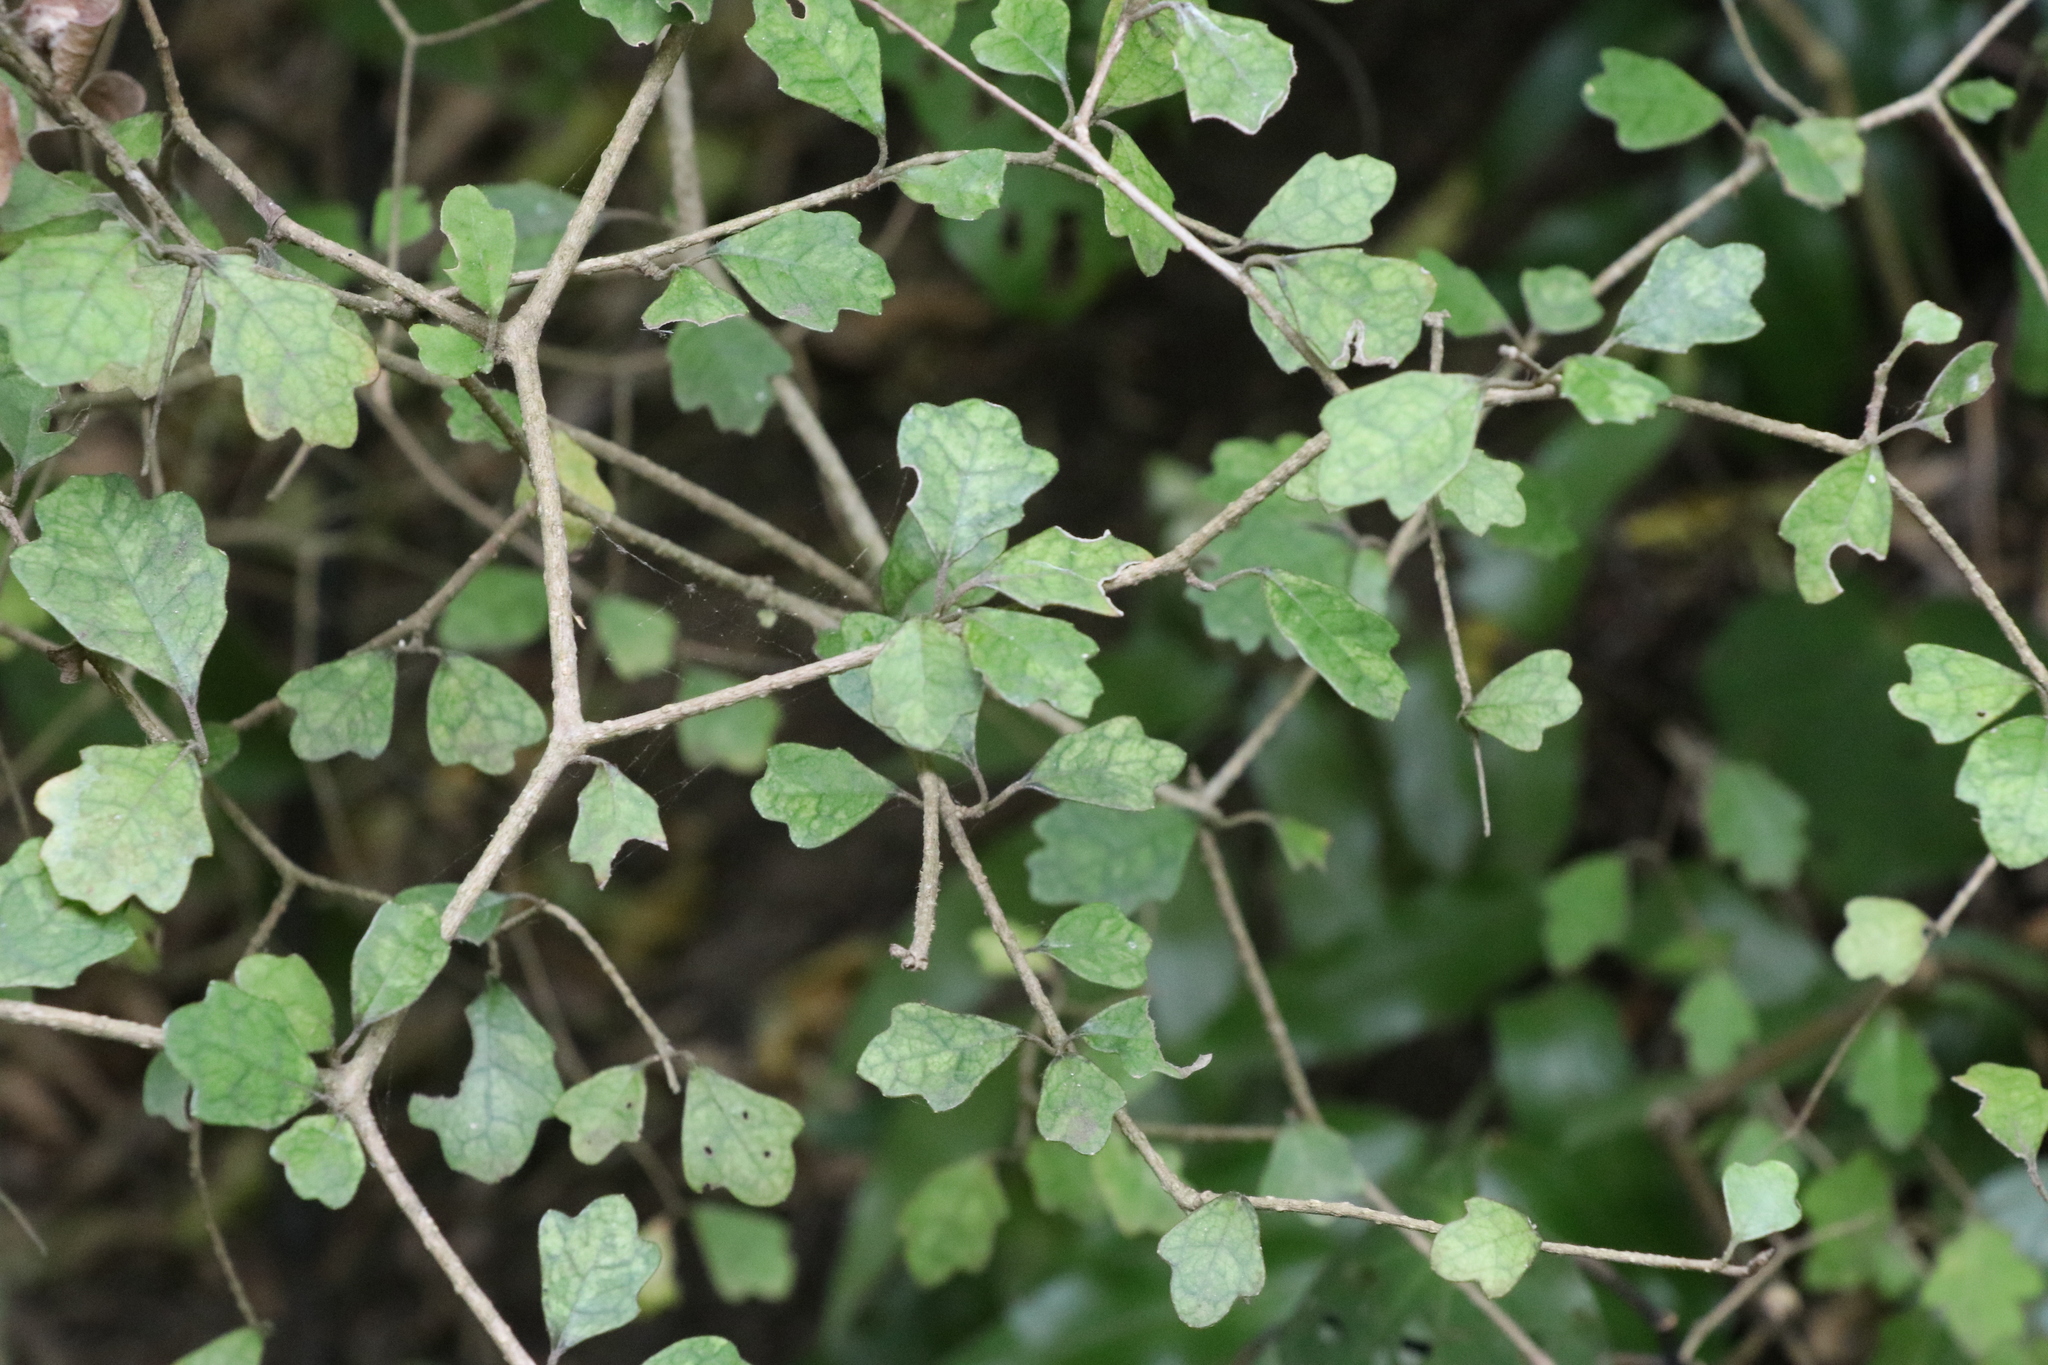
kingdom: Plantae
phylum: Tracheophyta
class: Magnoliopsida
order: Apiales
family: Pennantiaceae
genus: Pennantia
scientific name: Pennantia corymbosa
